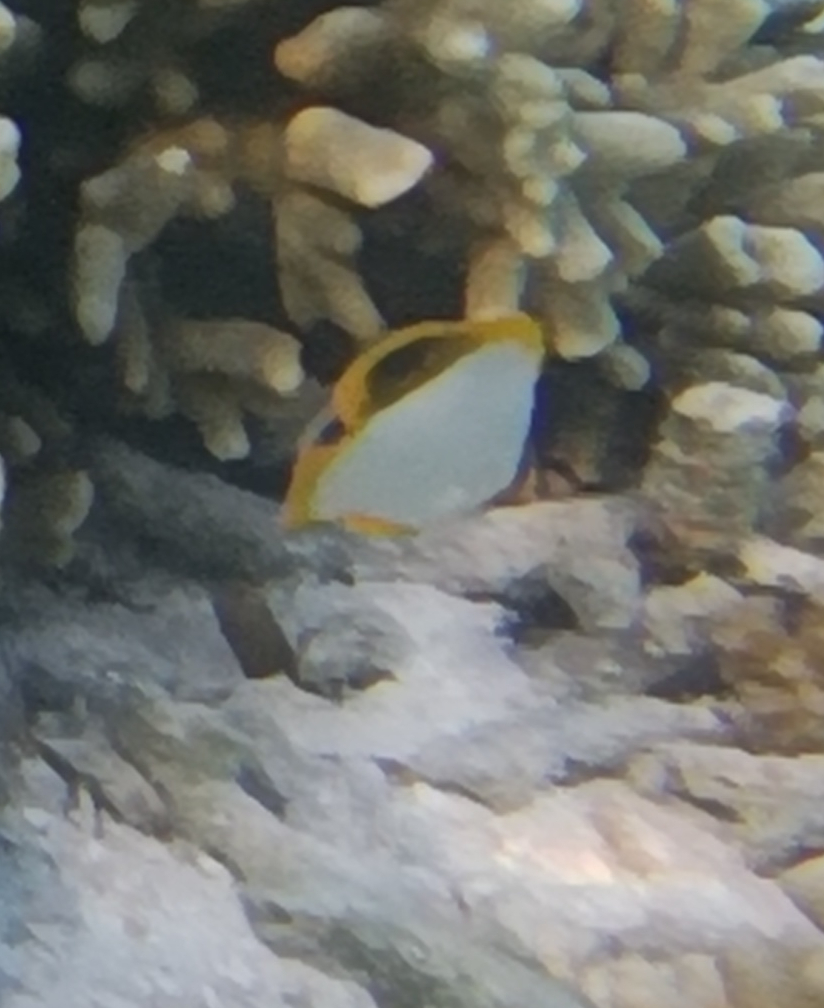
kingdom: Animalia
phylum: Chordata
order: Perciformes
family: Chaetodontidae
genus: Chaetodon
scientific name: Chaetodon xanthocephalus
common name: Yellowhead butterflyfish
